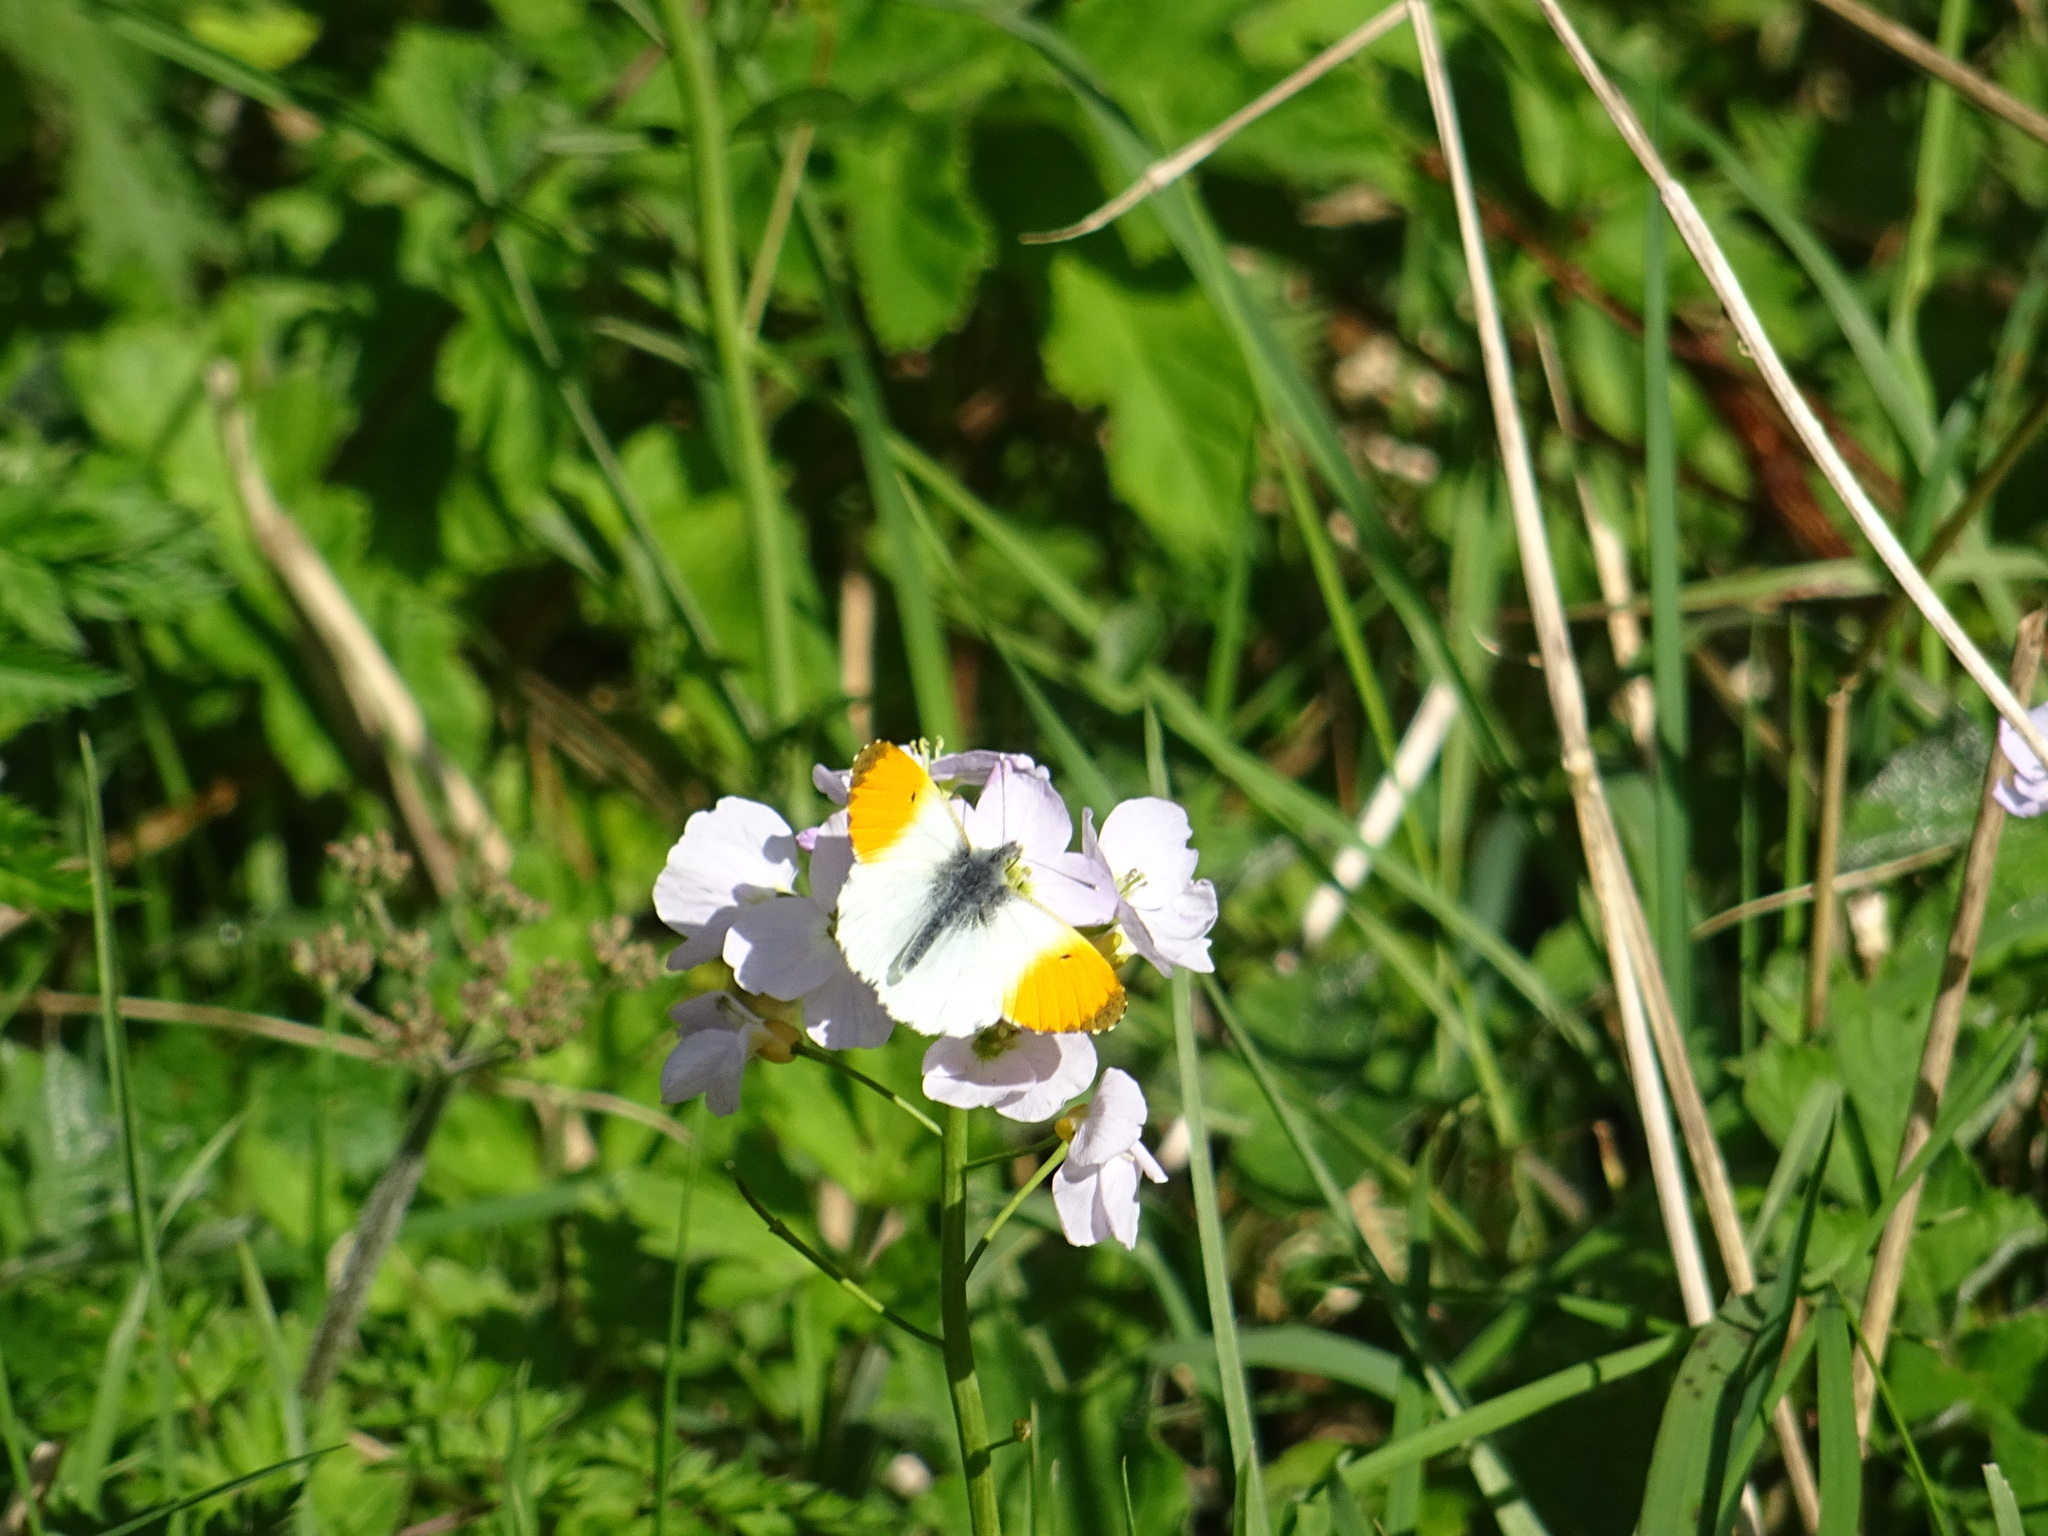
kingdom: Animalia
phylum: Arthropoda
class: Insecta
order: Lepidoptera
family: Pieridae
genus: Anthocharis
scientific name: Anthocharis cardamines
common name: Orange-tip
